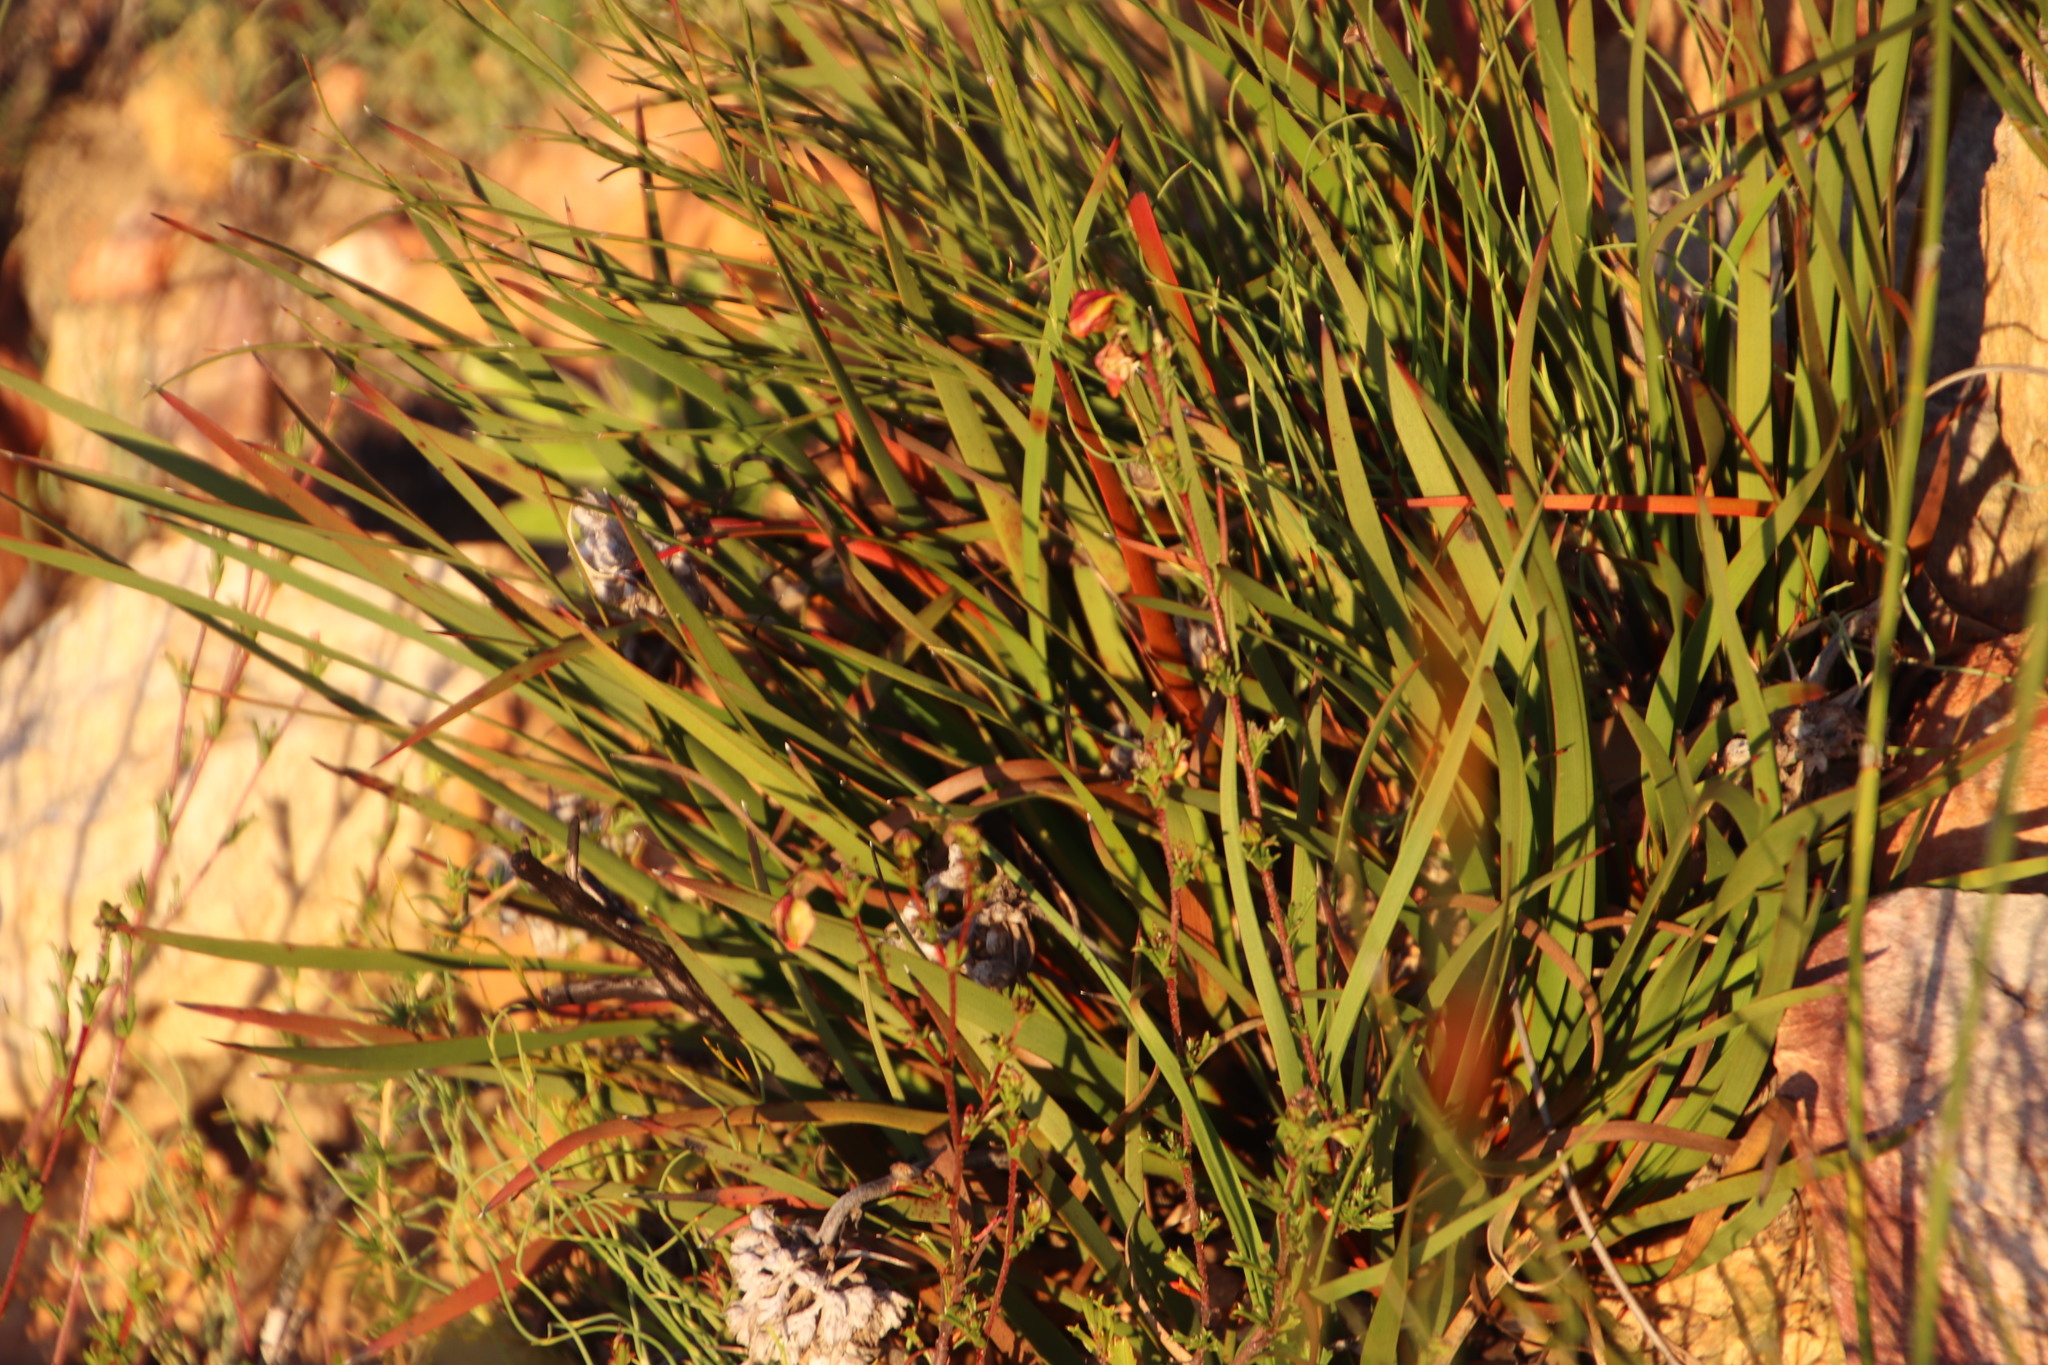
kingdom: Plantae
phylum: Tracheophyta
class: Liliopsida
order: Commelinales
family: Haemodoraceae
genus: Dilatris
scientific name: Dilatris pillansii
